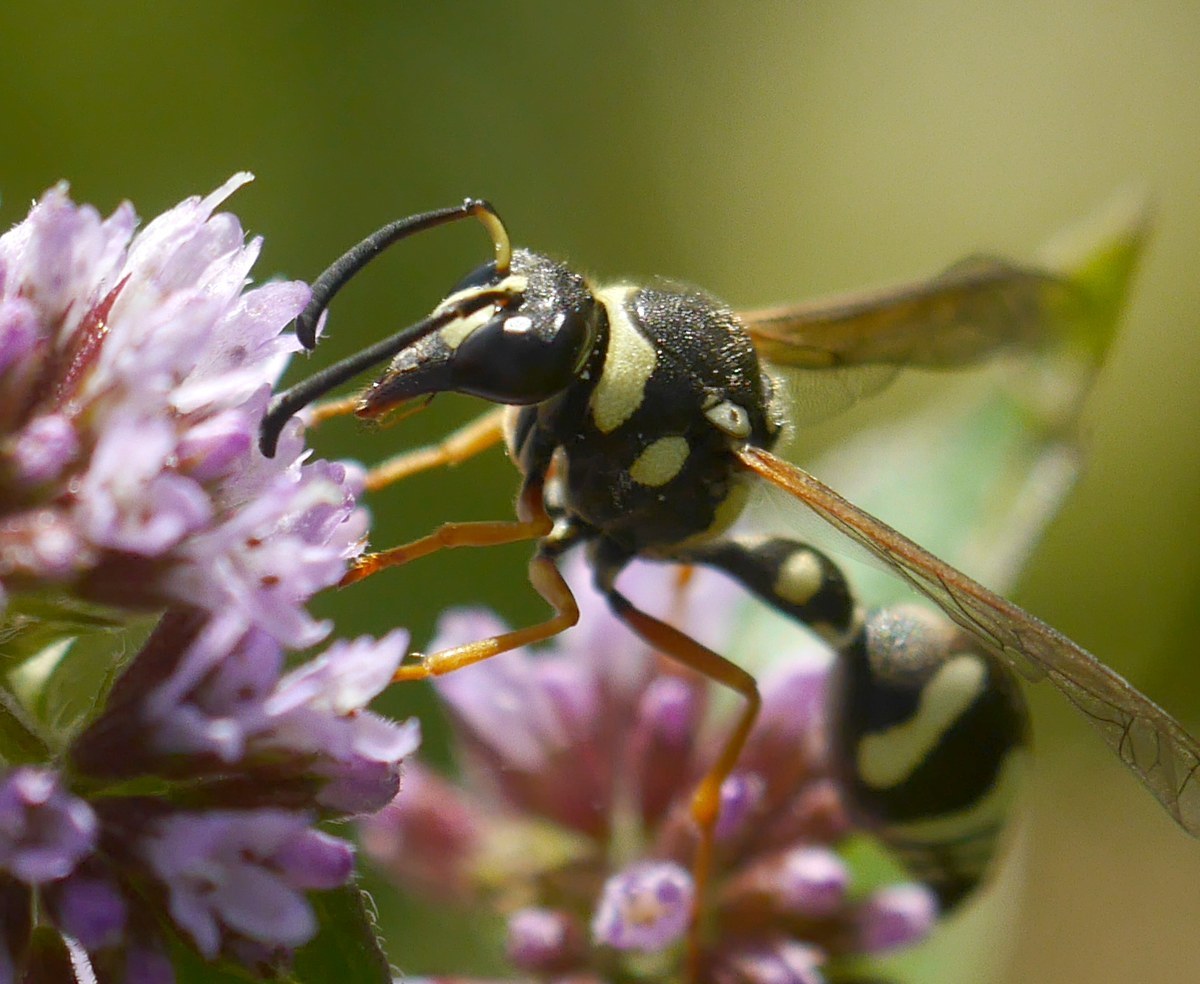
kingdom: Animalia
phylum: Arthropoda
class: Insecta
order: Hymenoptera
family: Vespidae
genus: Eumenes
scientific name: Eumenes sareptanus
